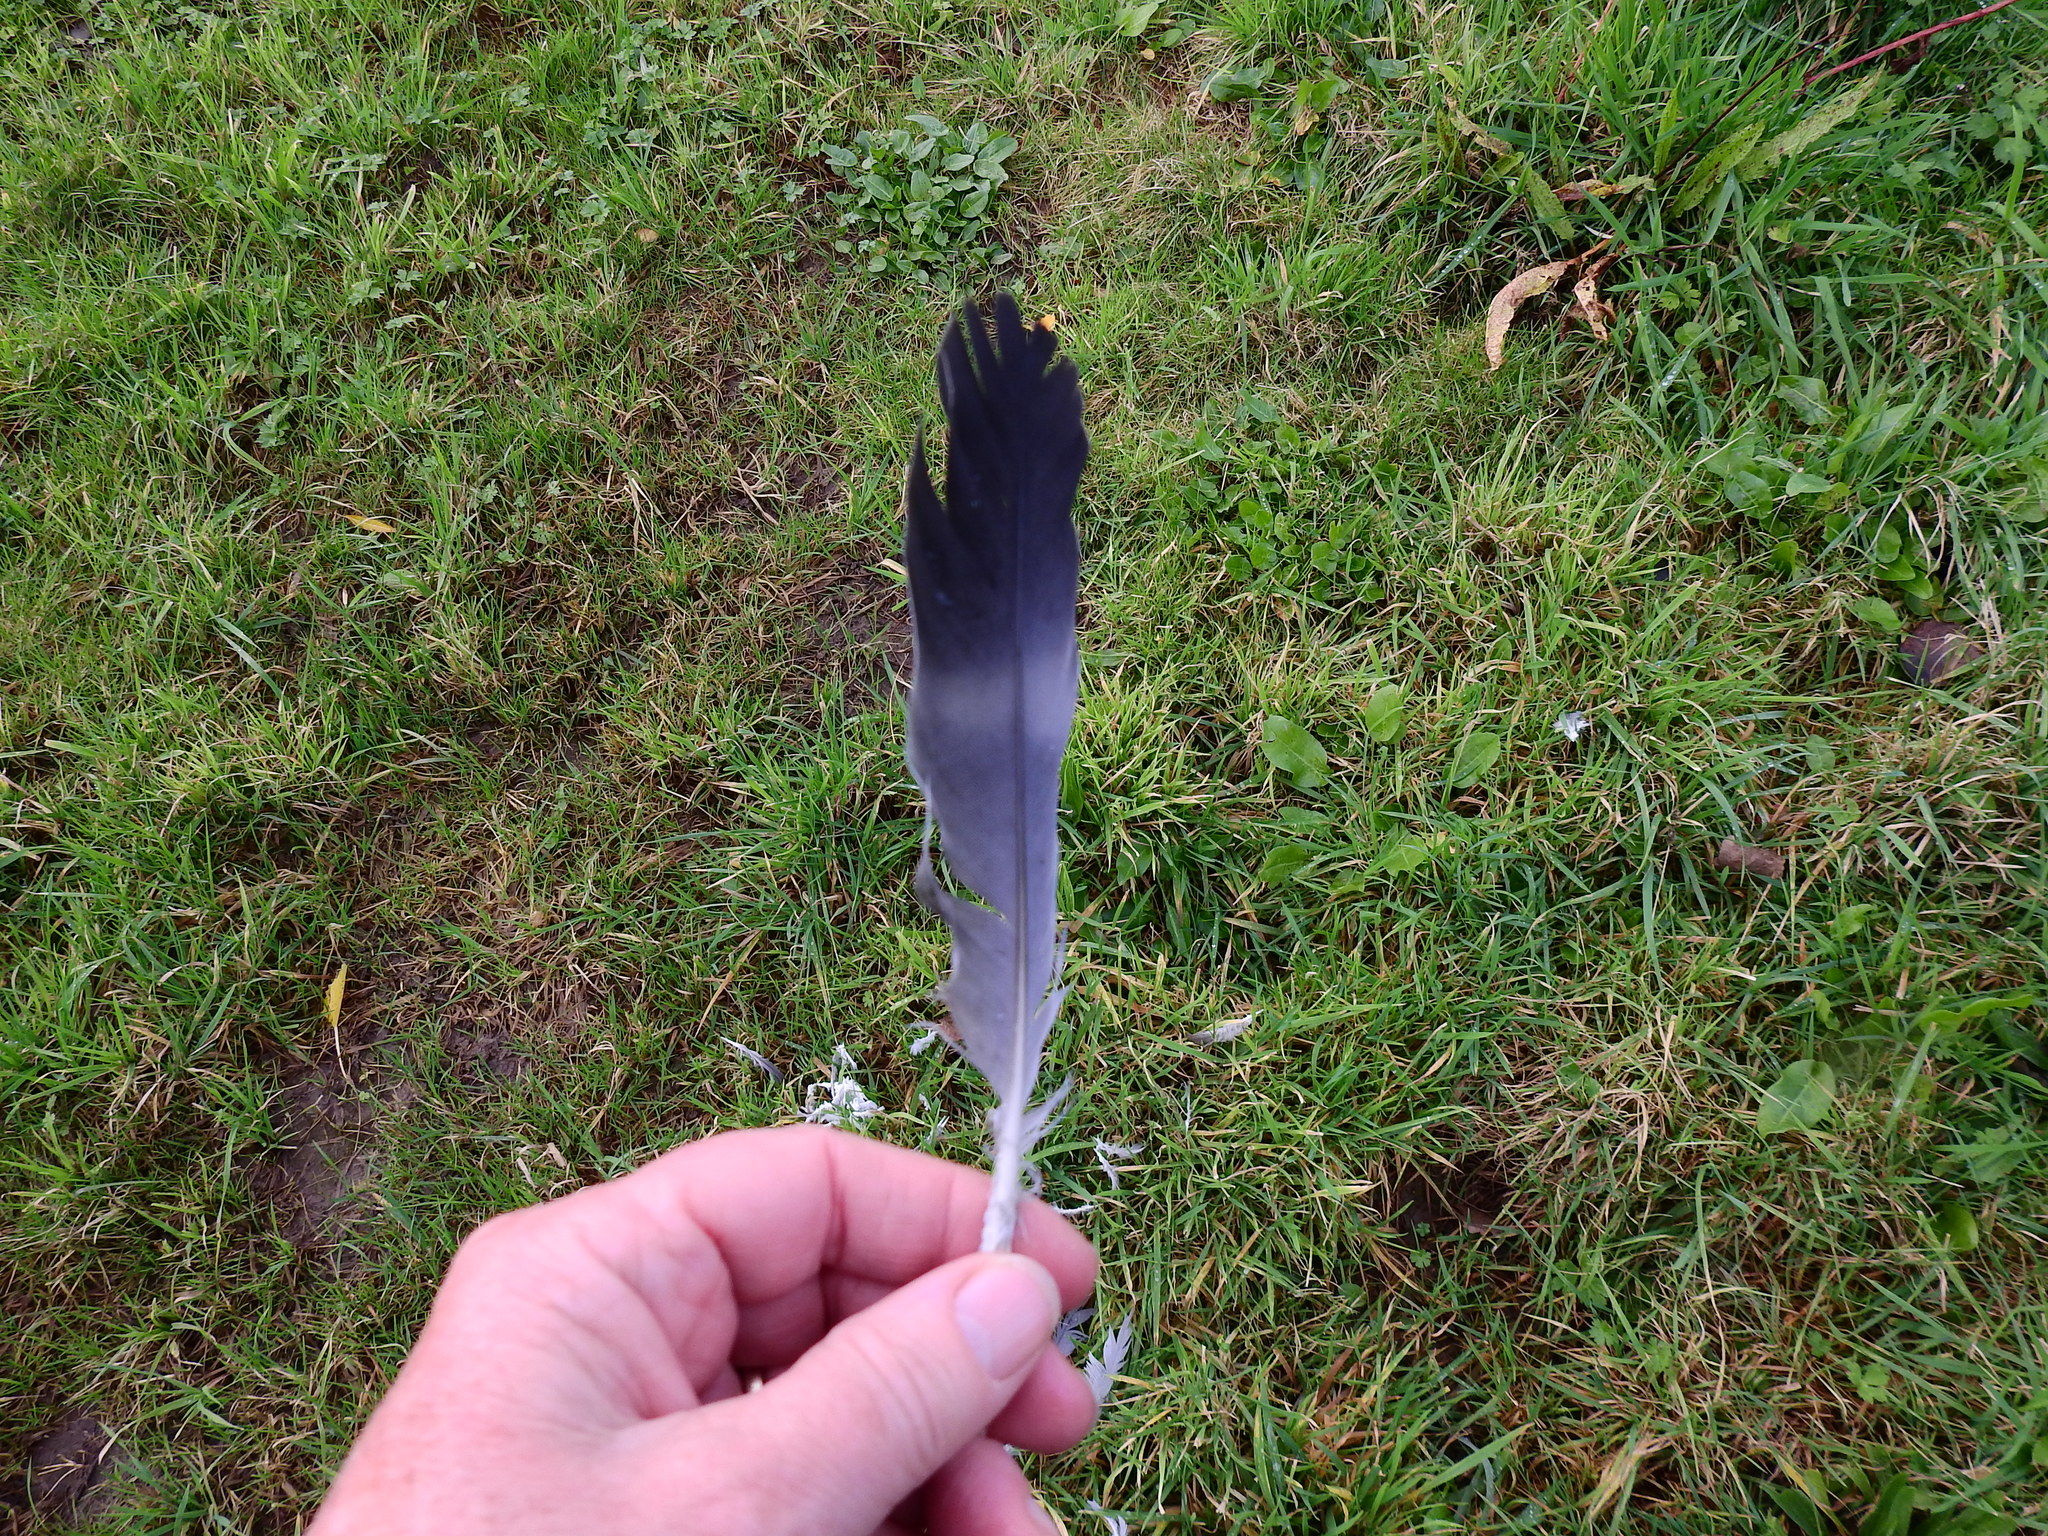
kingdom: Animalia
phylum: Chordata
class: Aves
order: Columbiformes
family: Columbidae
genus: Columba
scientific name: Columba palumbus
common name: Common wood pigeon
